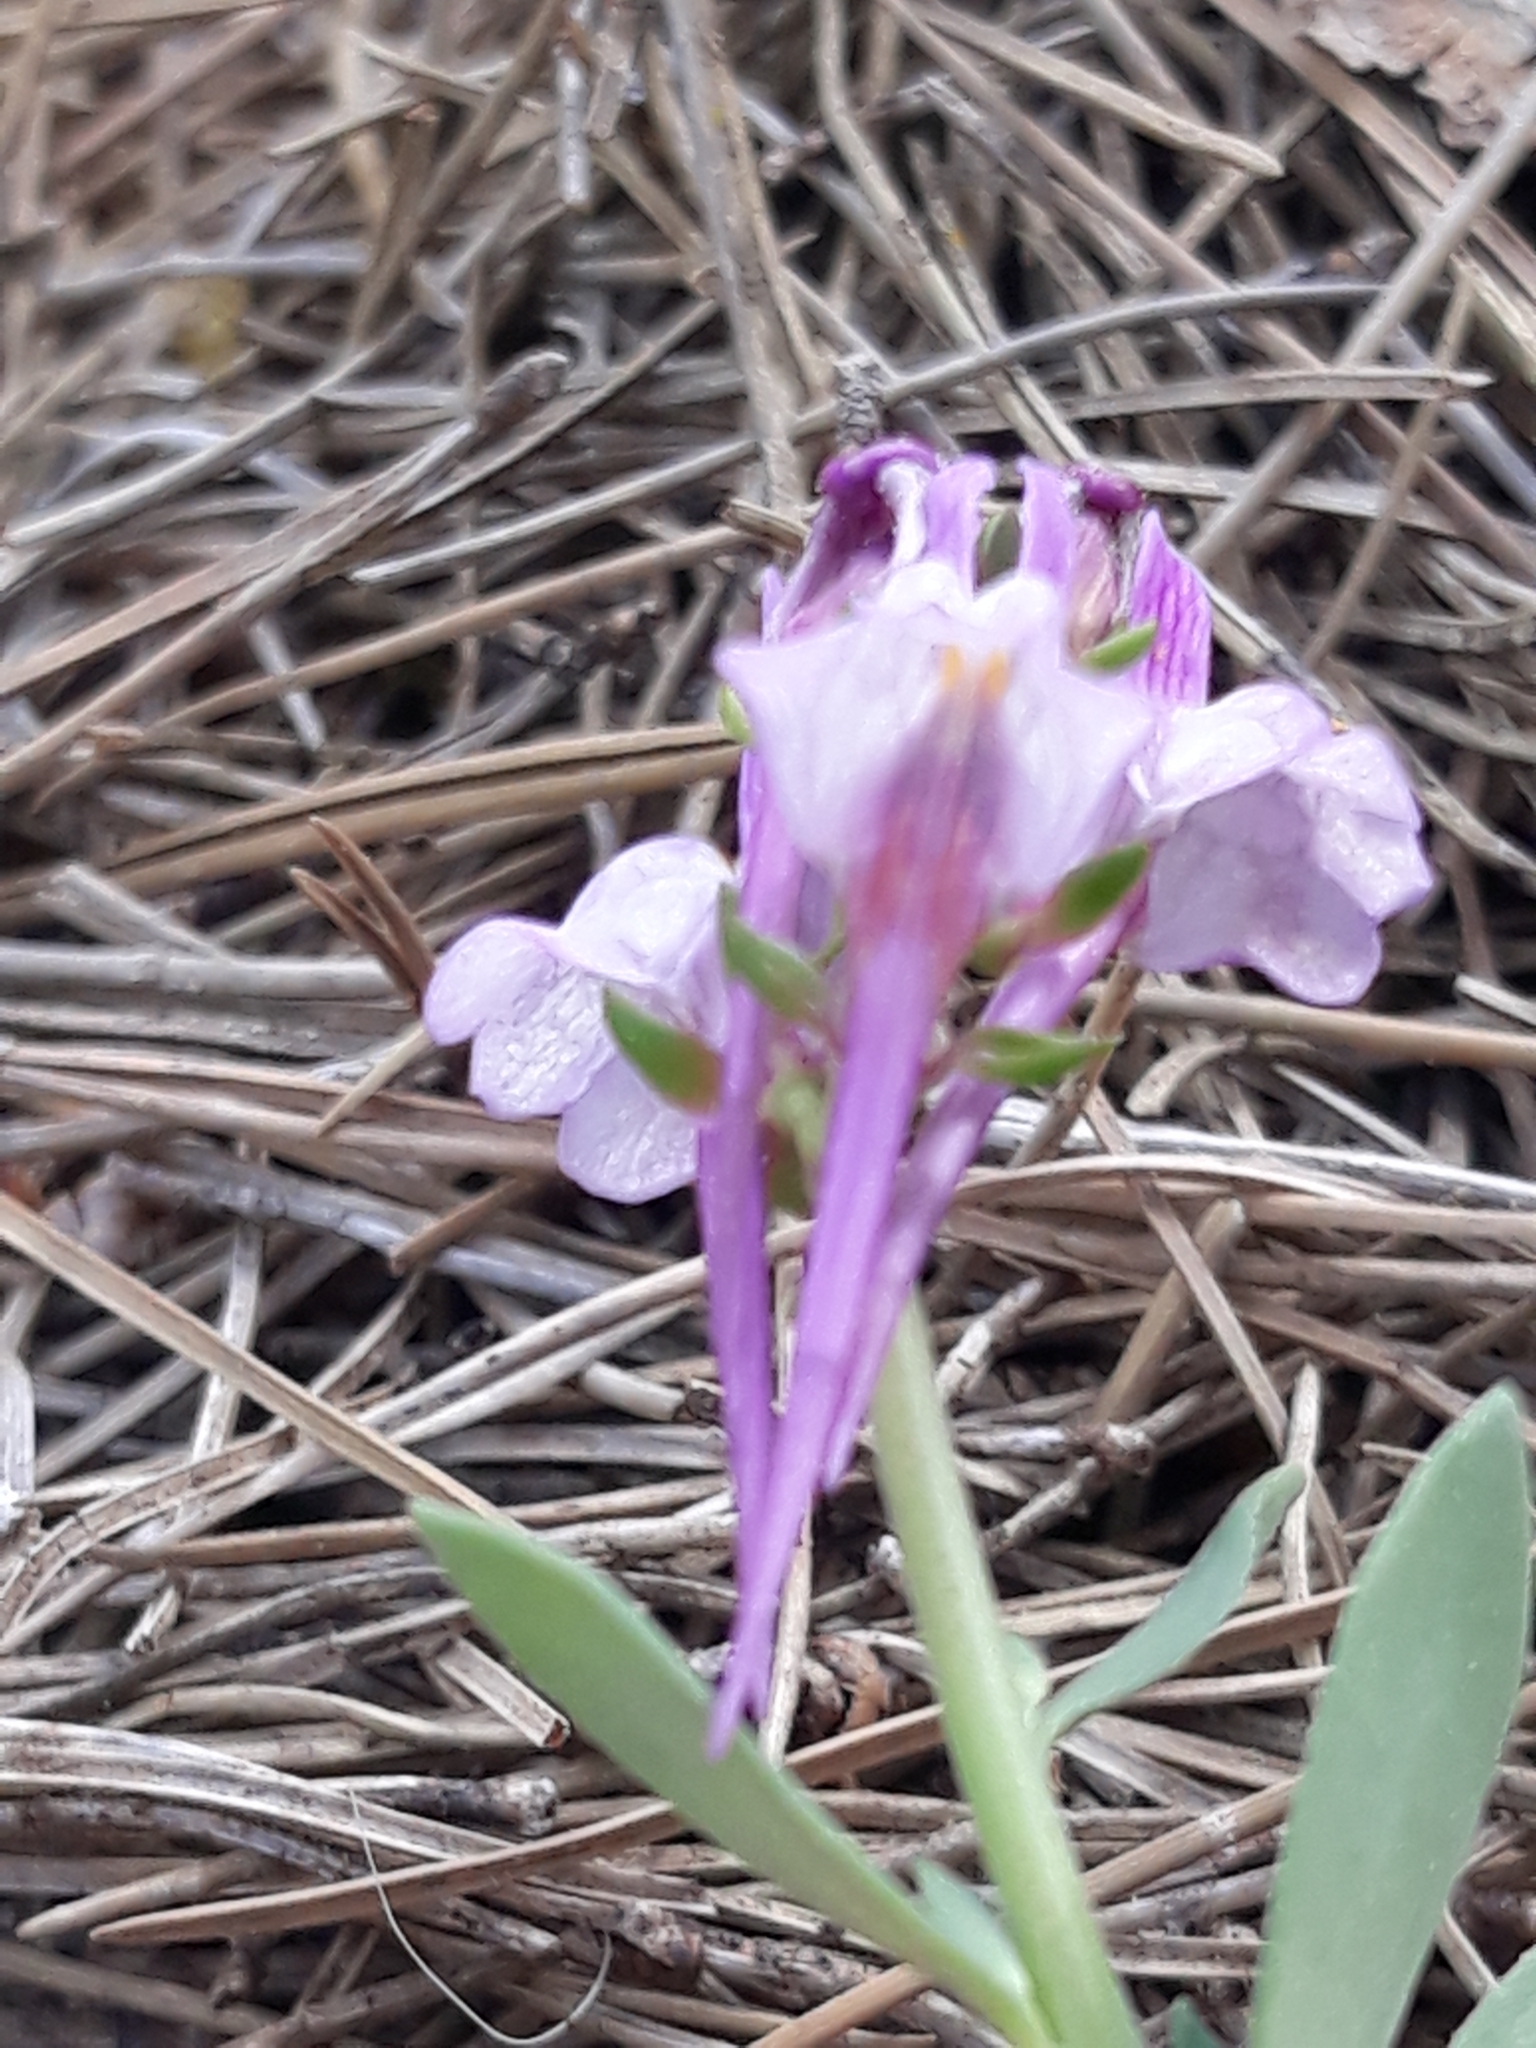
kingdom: Plantae
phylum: Tracheophyta
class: Magnoliopsida
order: Lamiales
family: Plantaginaceae
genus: Linaria
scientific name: Linaria virgata
